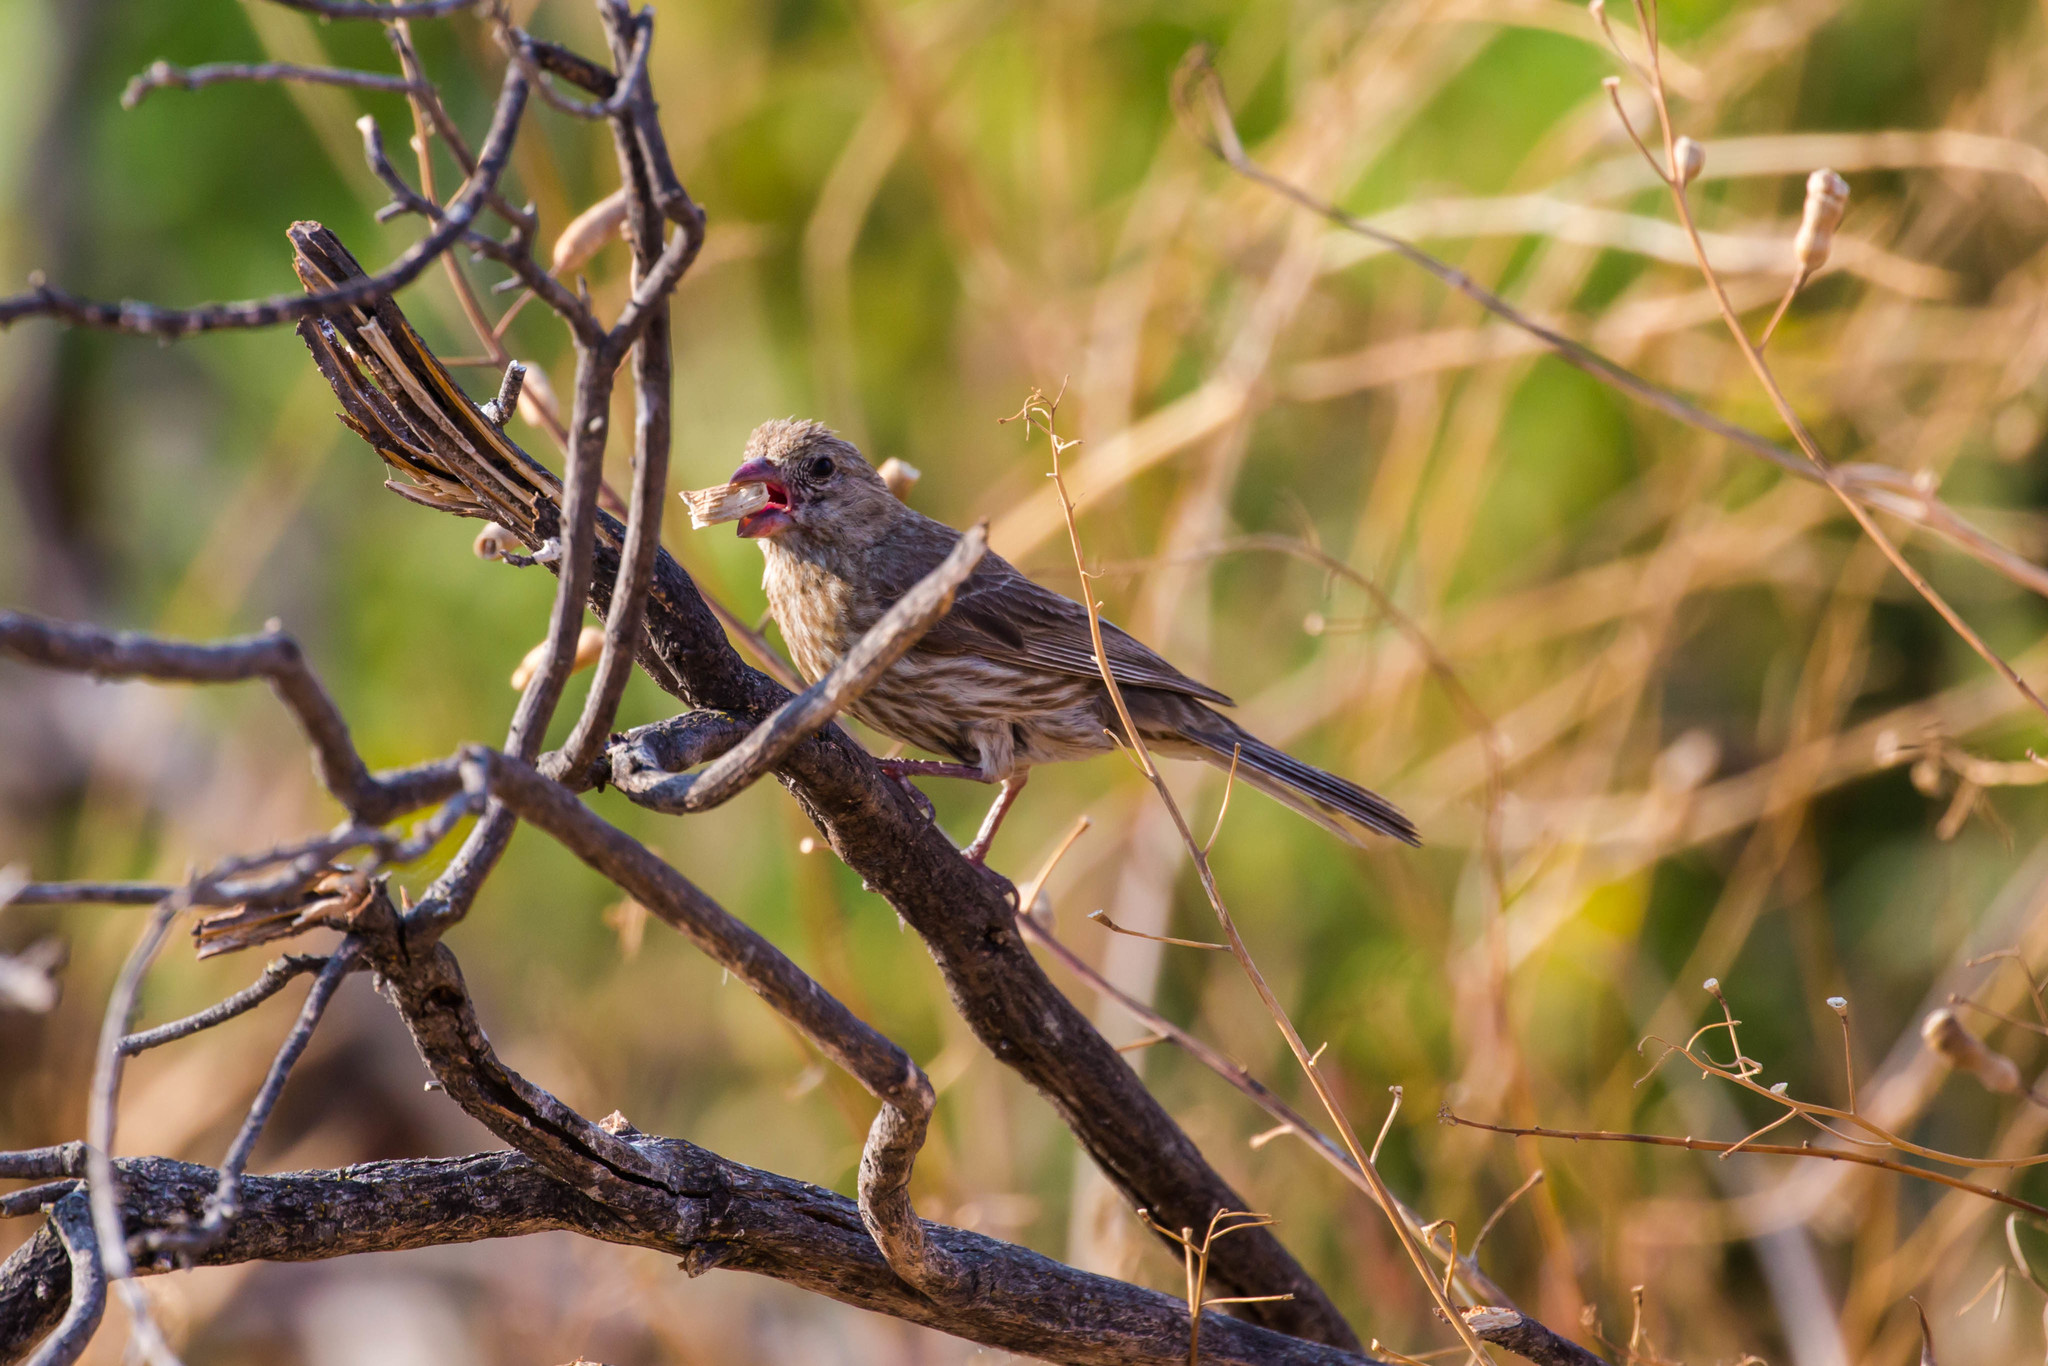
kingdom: Animalia
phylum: Chordata
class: Aves
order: Passeriformes
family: Fringillidae
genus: Haemorhous
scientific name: Haemorhous mexicanus
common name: House finch
